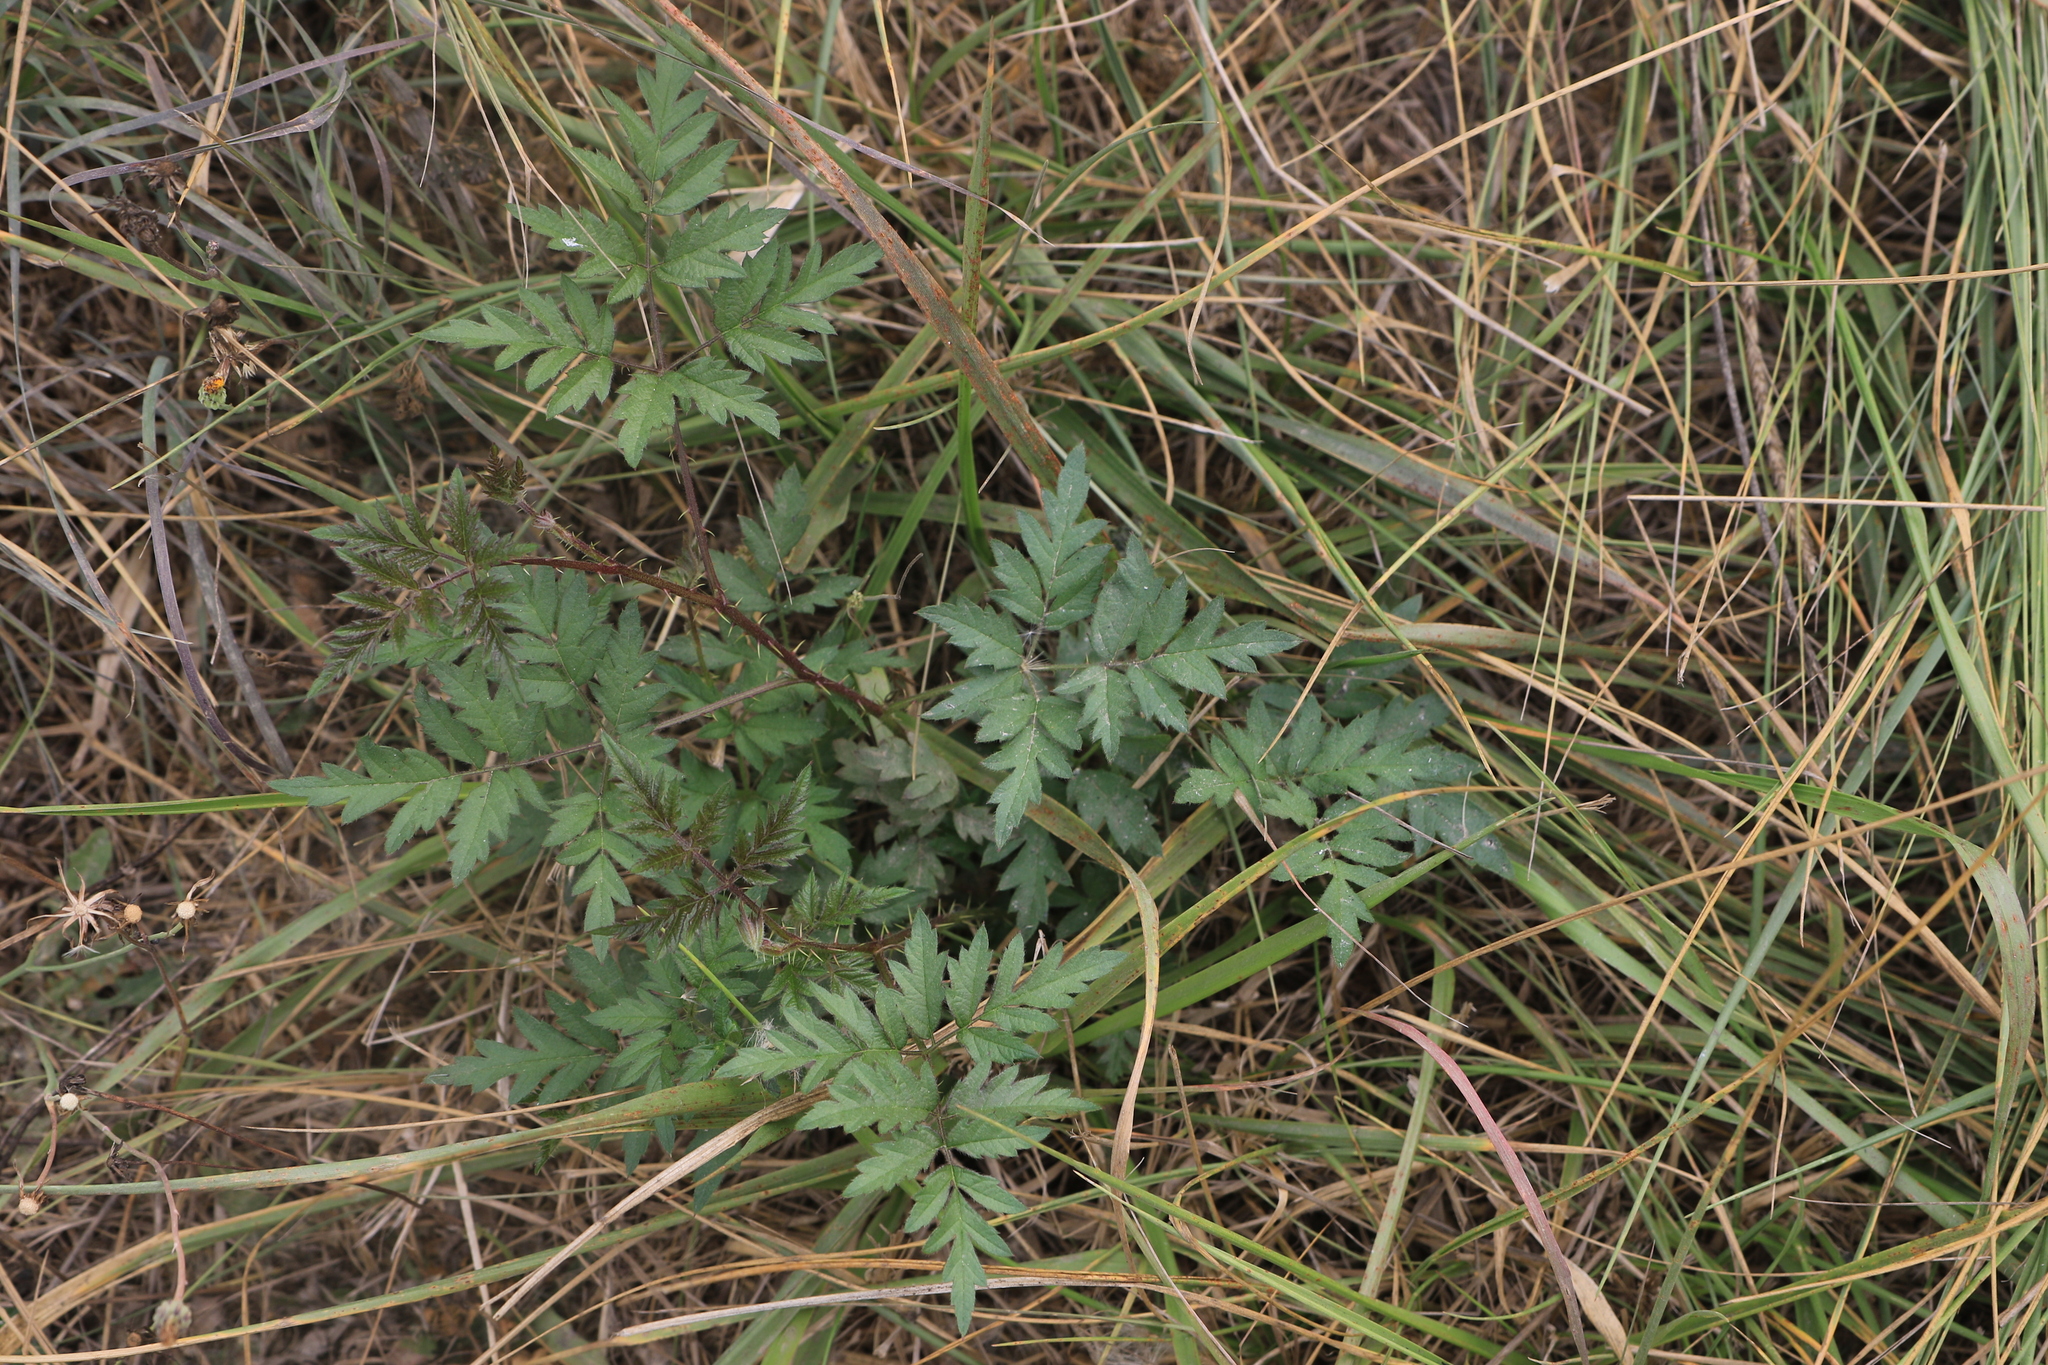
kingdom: Plantae
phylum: Tracheophyta
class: Magnoliopsida
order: Rosales
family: Rosaceae
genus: Rubus
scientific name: Rubus laciniatus
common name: Evergreen blackberry
